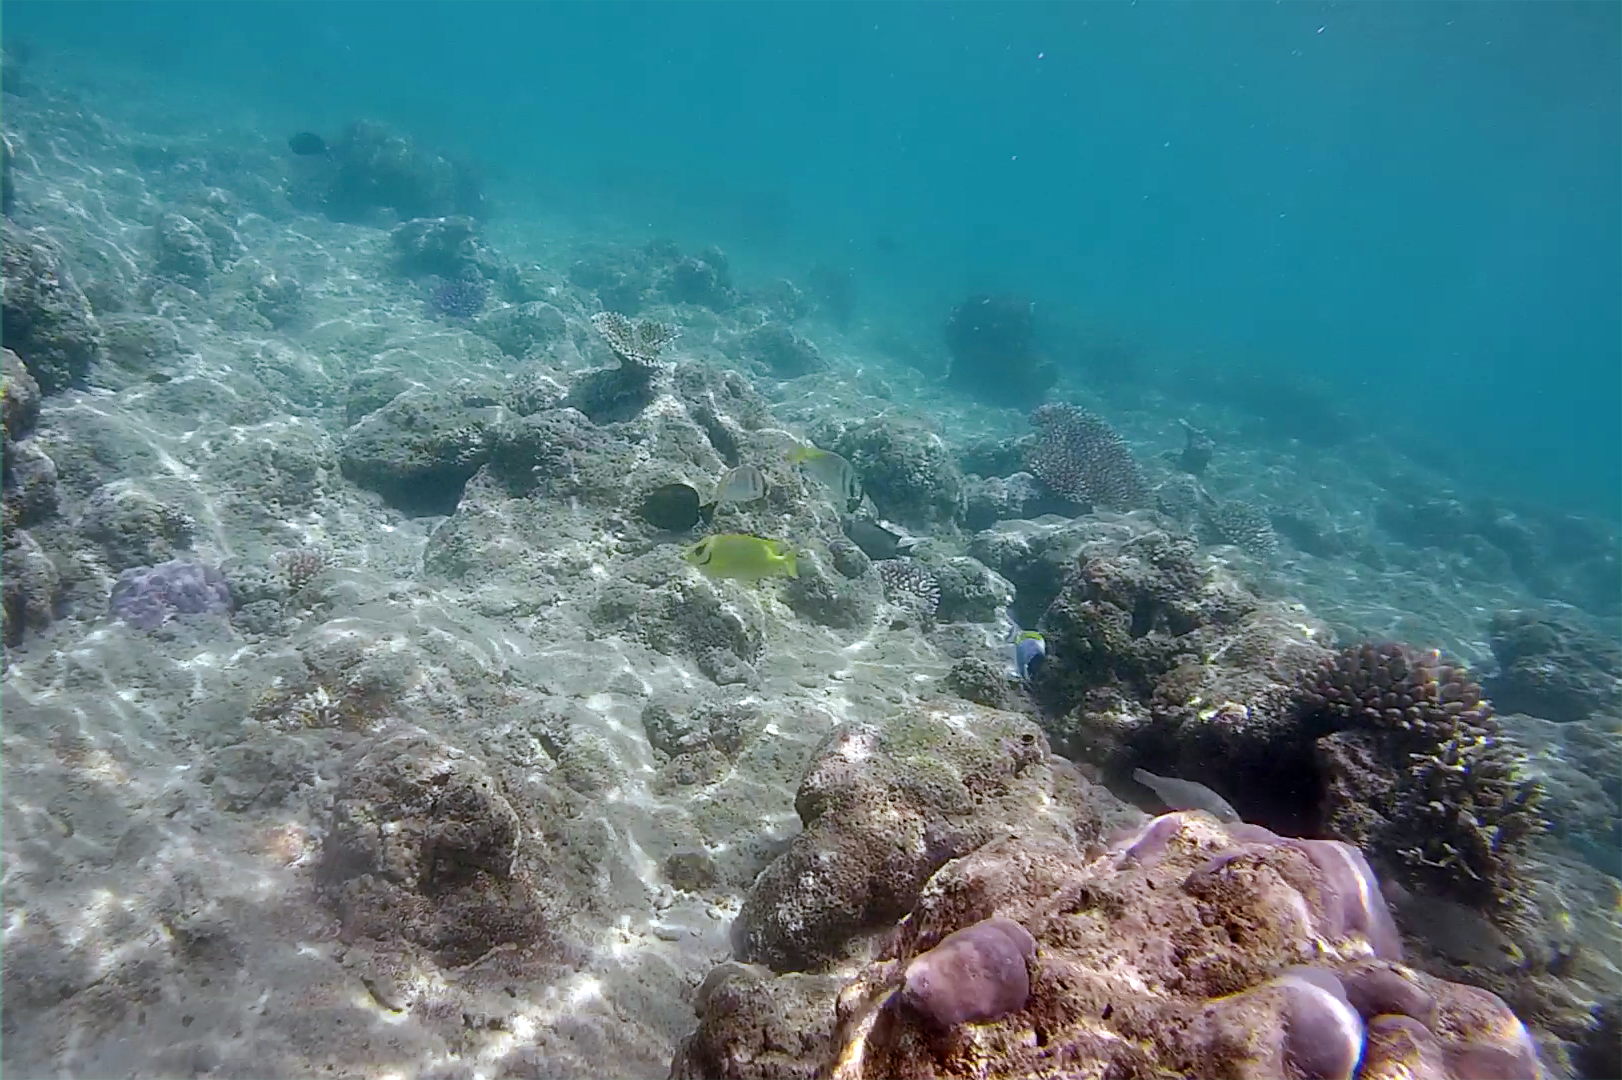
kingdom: Animalia
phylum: Chordata
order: Perciformes
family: Siganidae
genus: Siganus
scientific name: Siganus corallinus
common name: Coral rabbitfish
